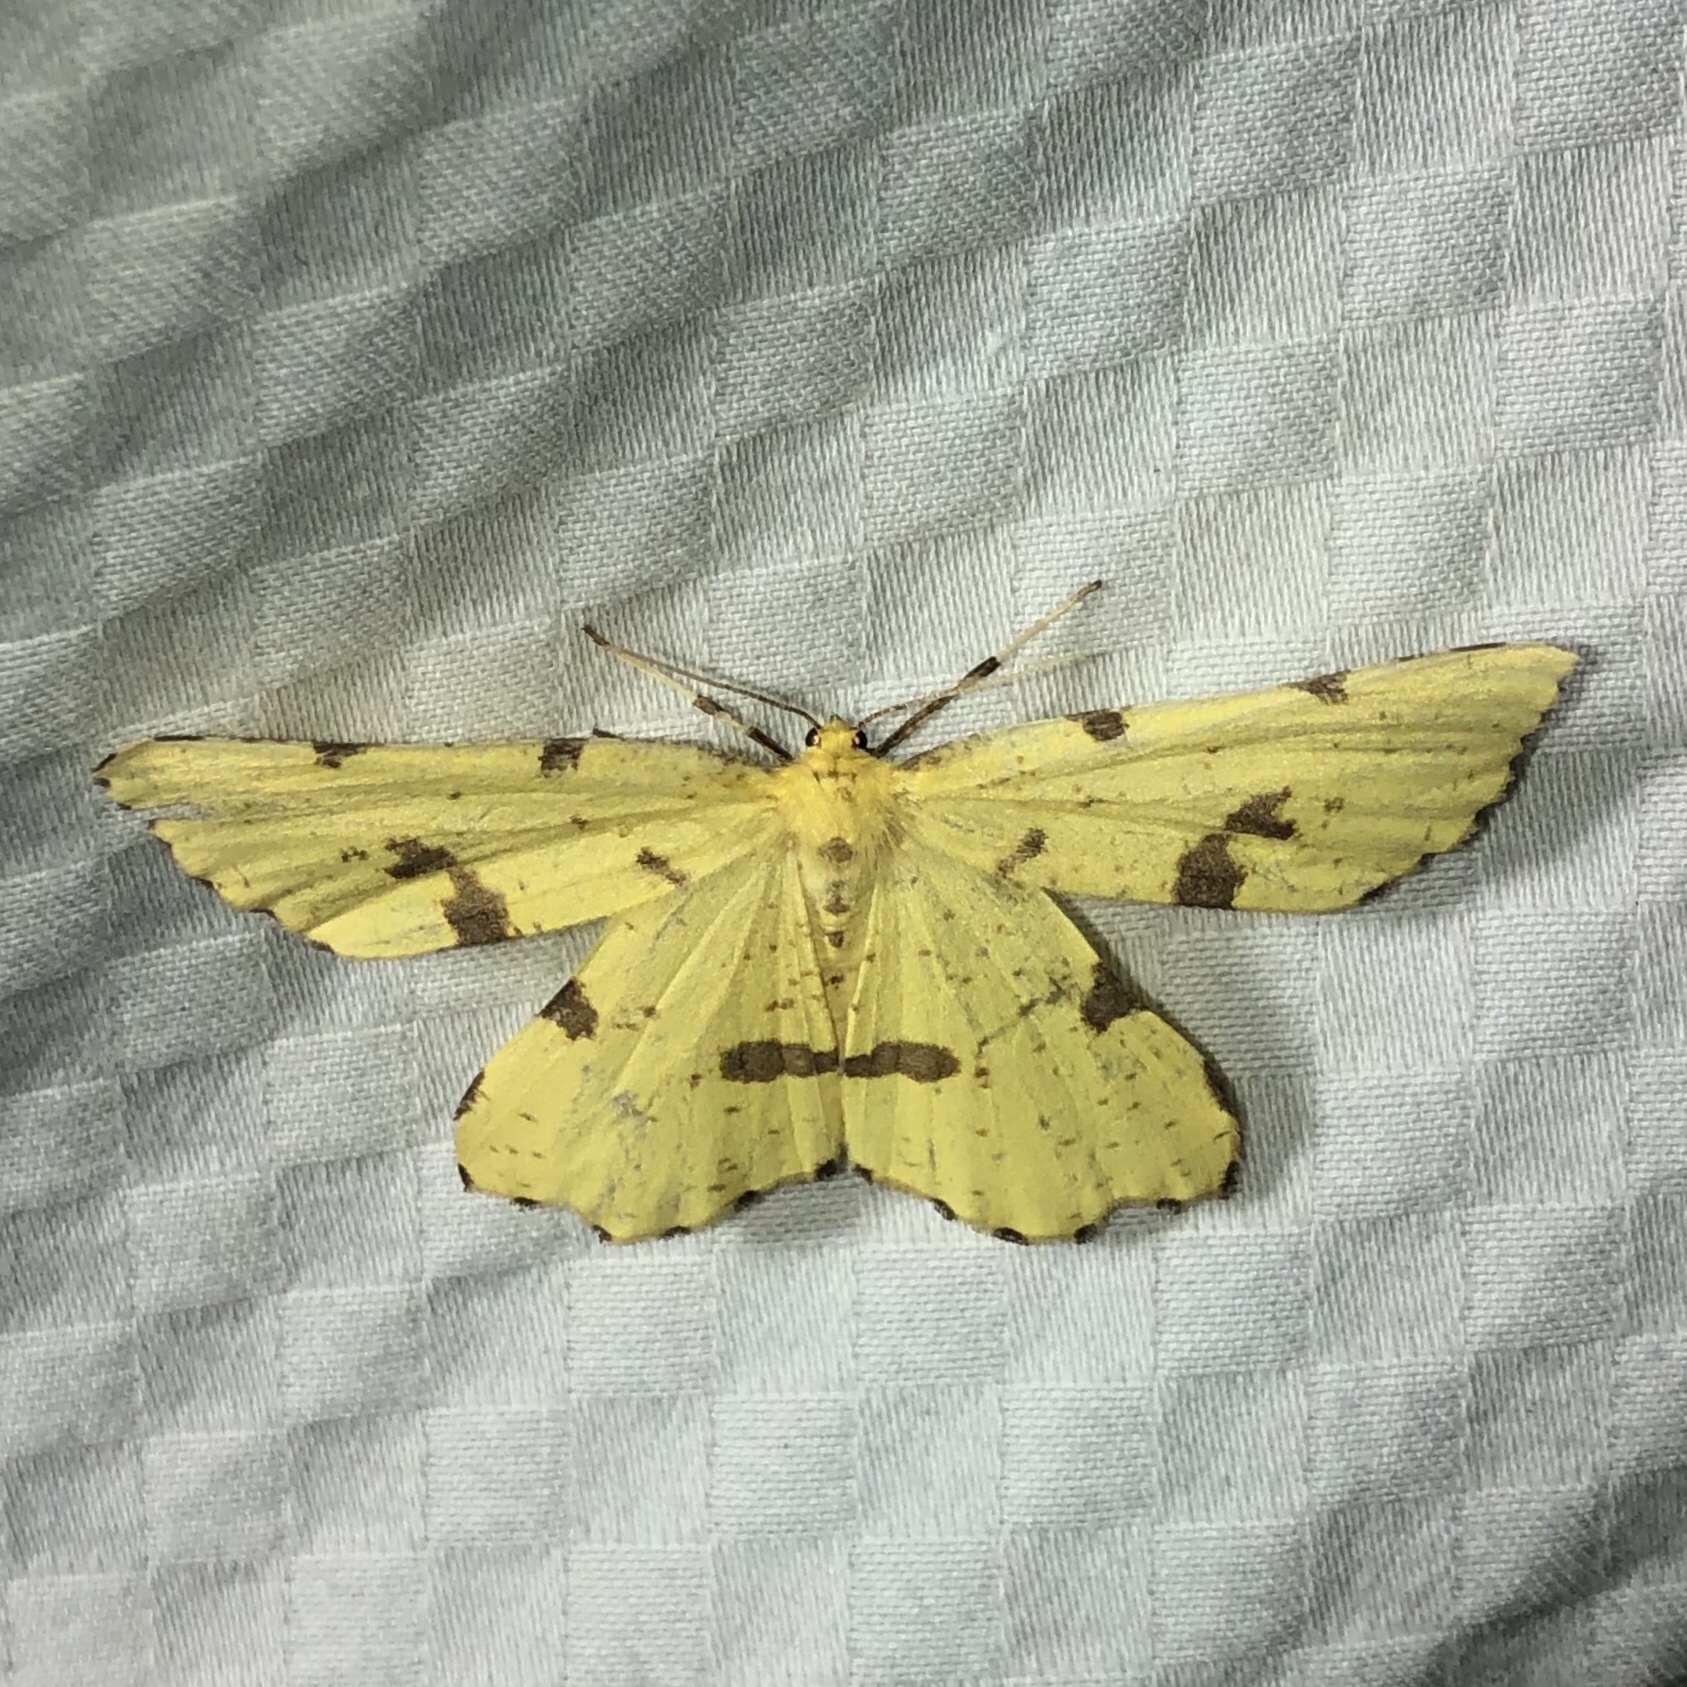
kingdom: Animalia
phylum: Arthropoda
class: Insecta
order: Lepidoptera
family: Geometridae
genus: Xanthotype
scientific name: Xanthotype
